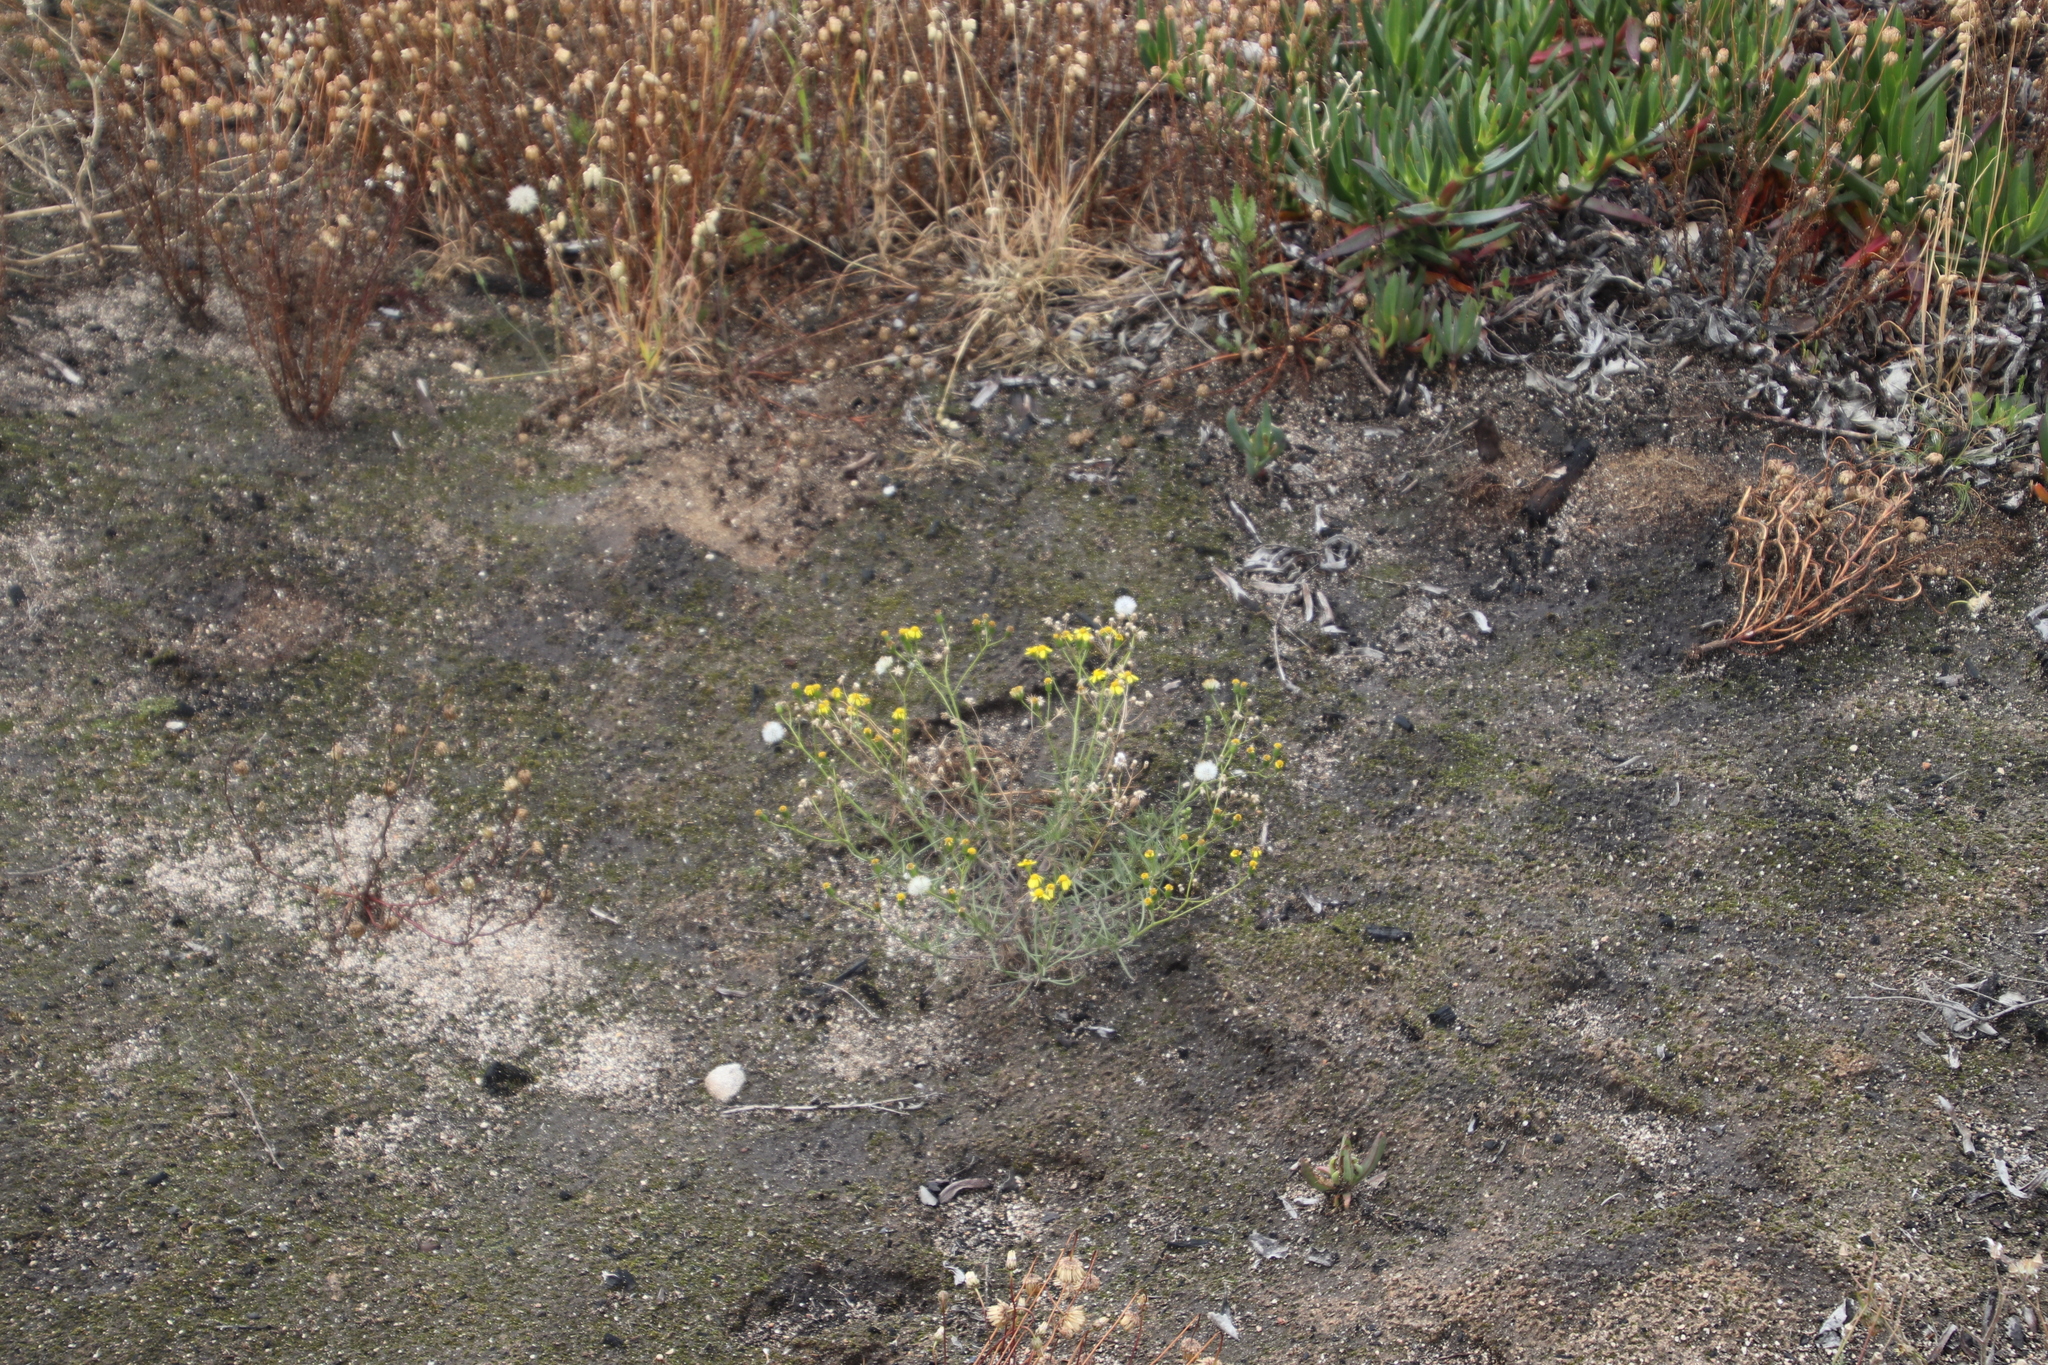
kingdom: Plantae
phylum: Tracheophyta
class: Magnoliopsida
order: Asterales
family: Asteraceae
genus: Senecio
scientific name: Senecio burchellii
